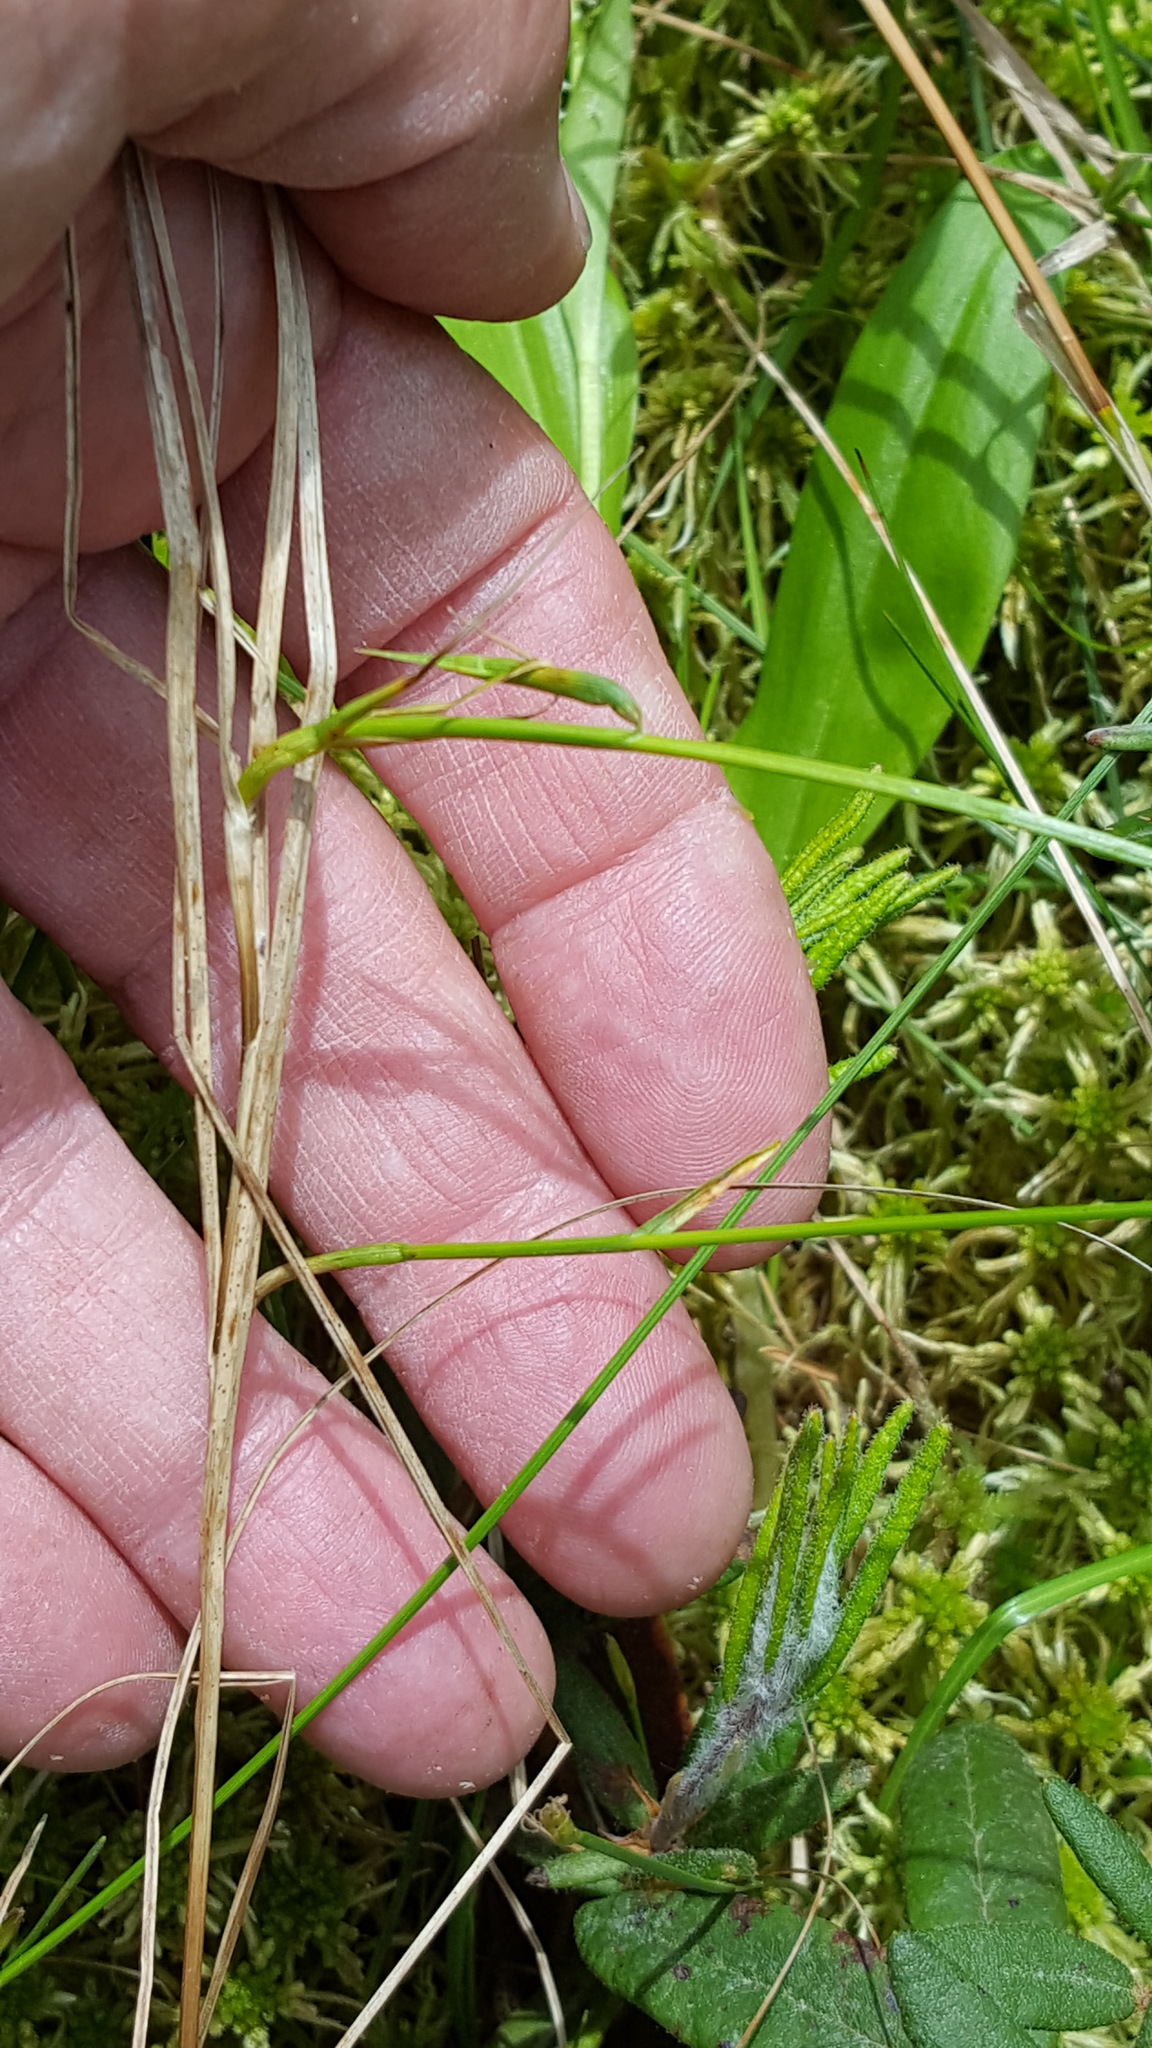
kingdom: Plantae
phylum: Tracheophyta
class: Liliopsida
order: Poales
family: Cyperaceae
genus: Carex
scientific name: Carex chordorrhiza
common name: String sedge
